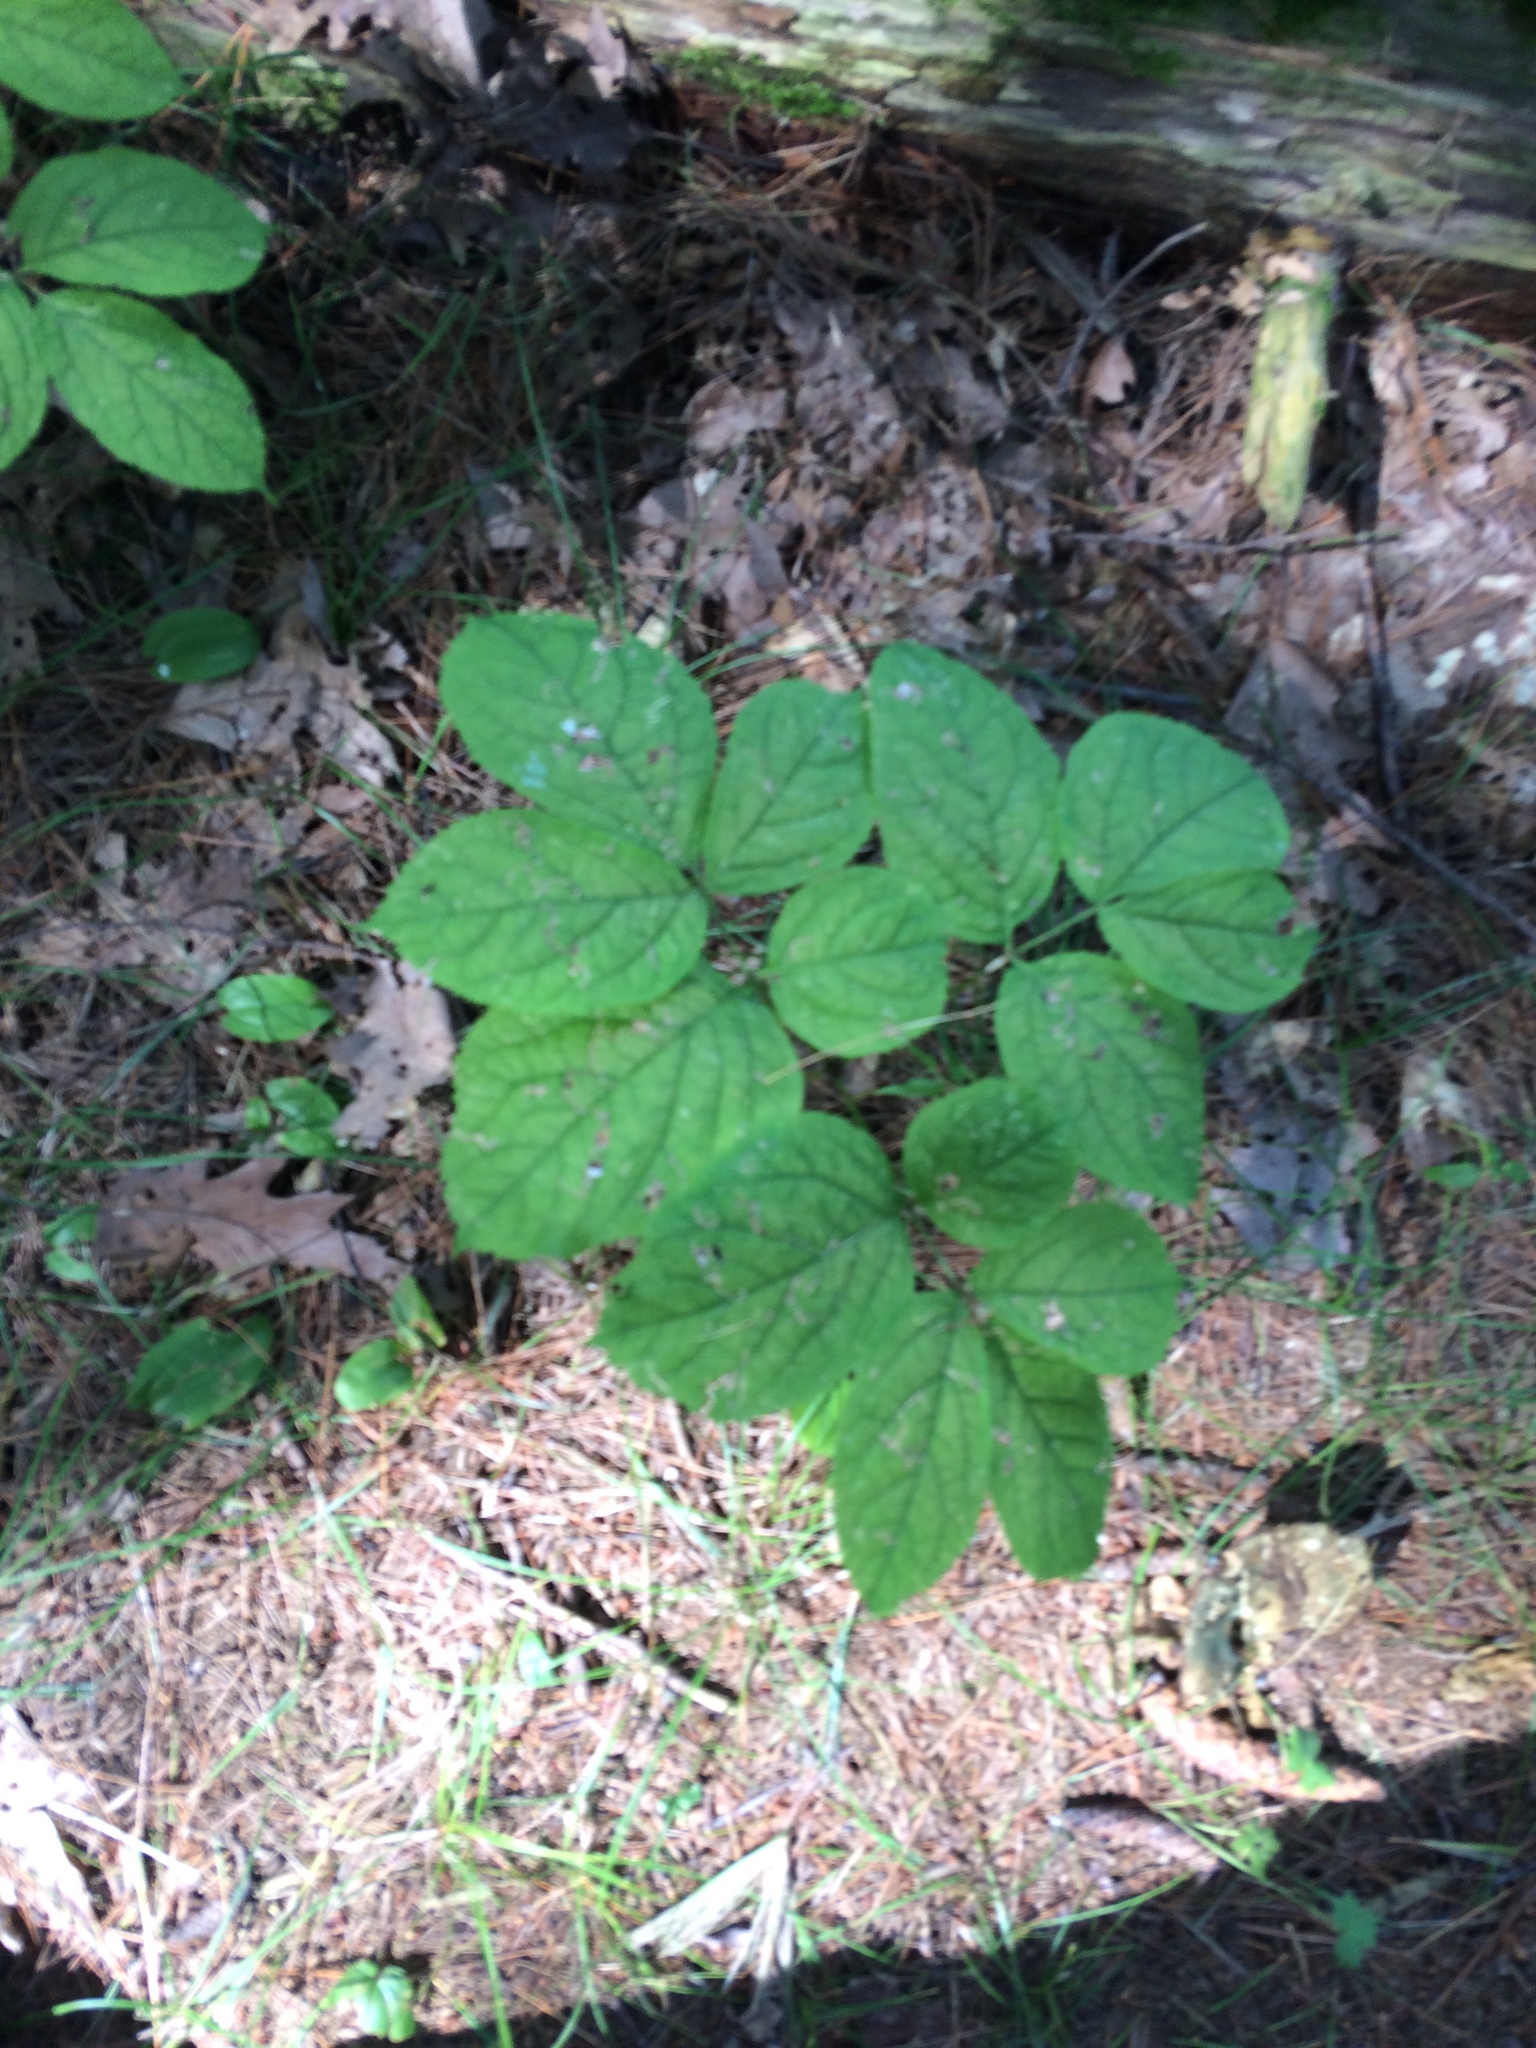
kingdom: Plantae
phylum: Tracheophyta
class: Magnoliopsida
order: Apiales
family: Araliaceae
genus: Aralia
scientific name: Aralia nudicaulis
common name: Wild sarsaparilla
